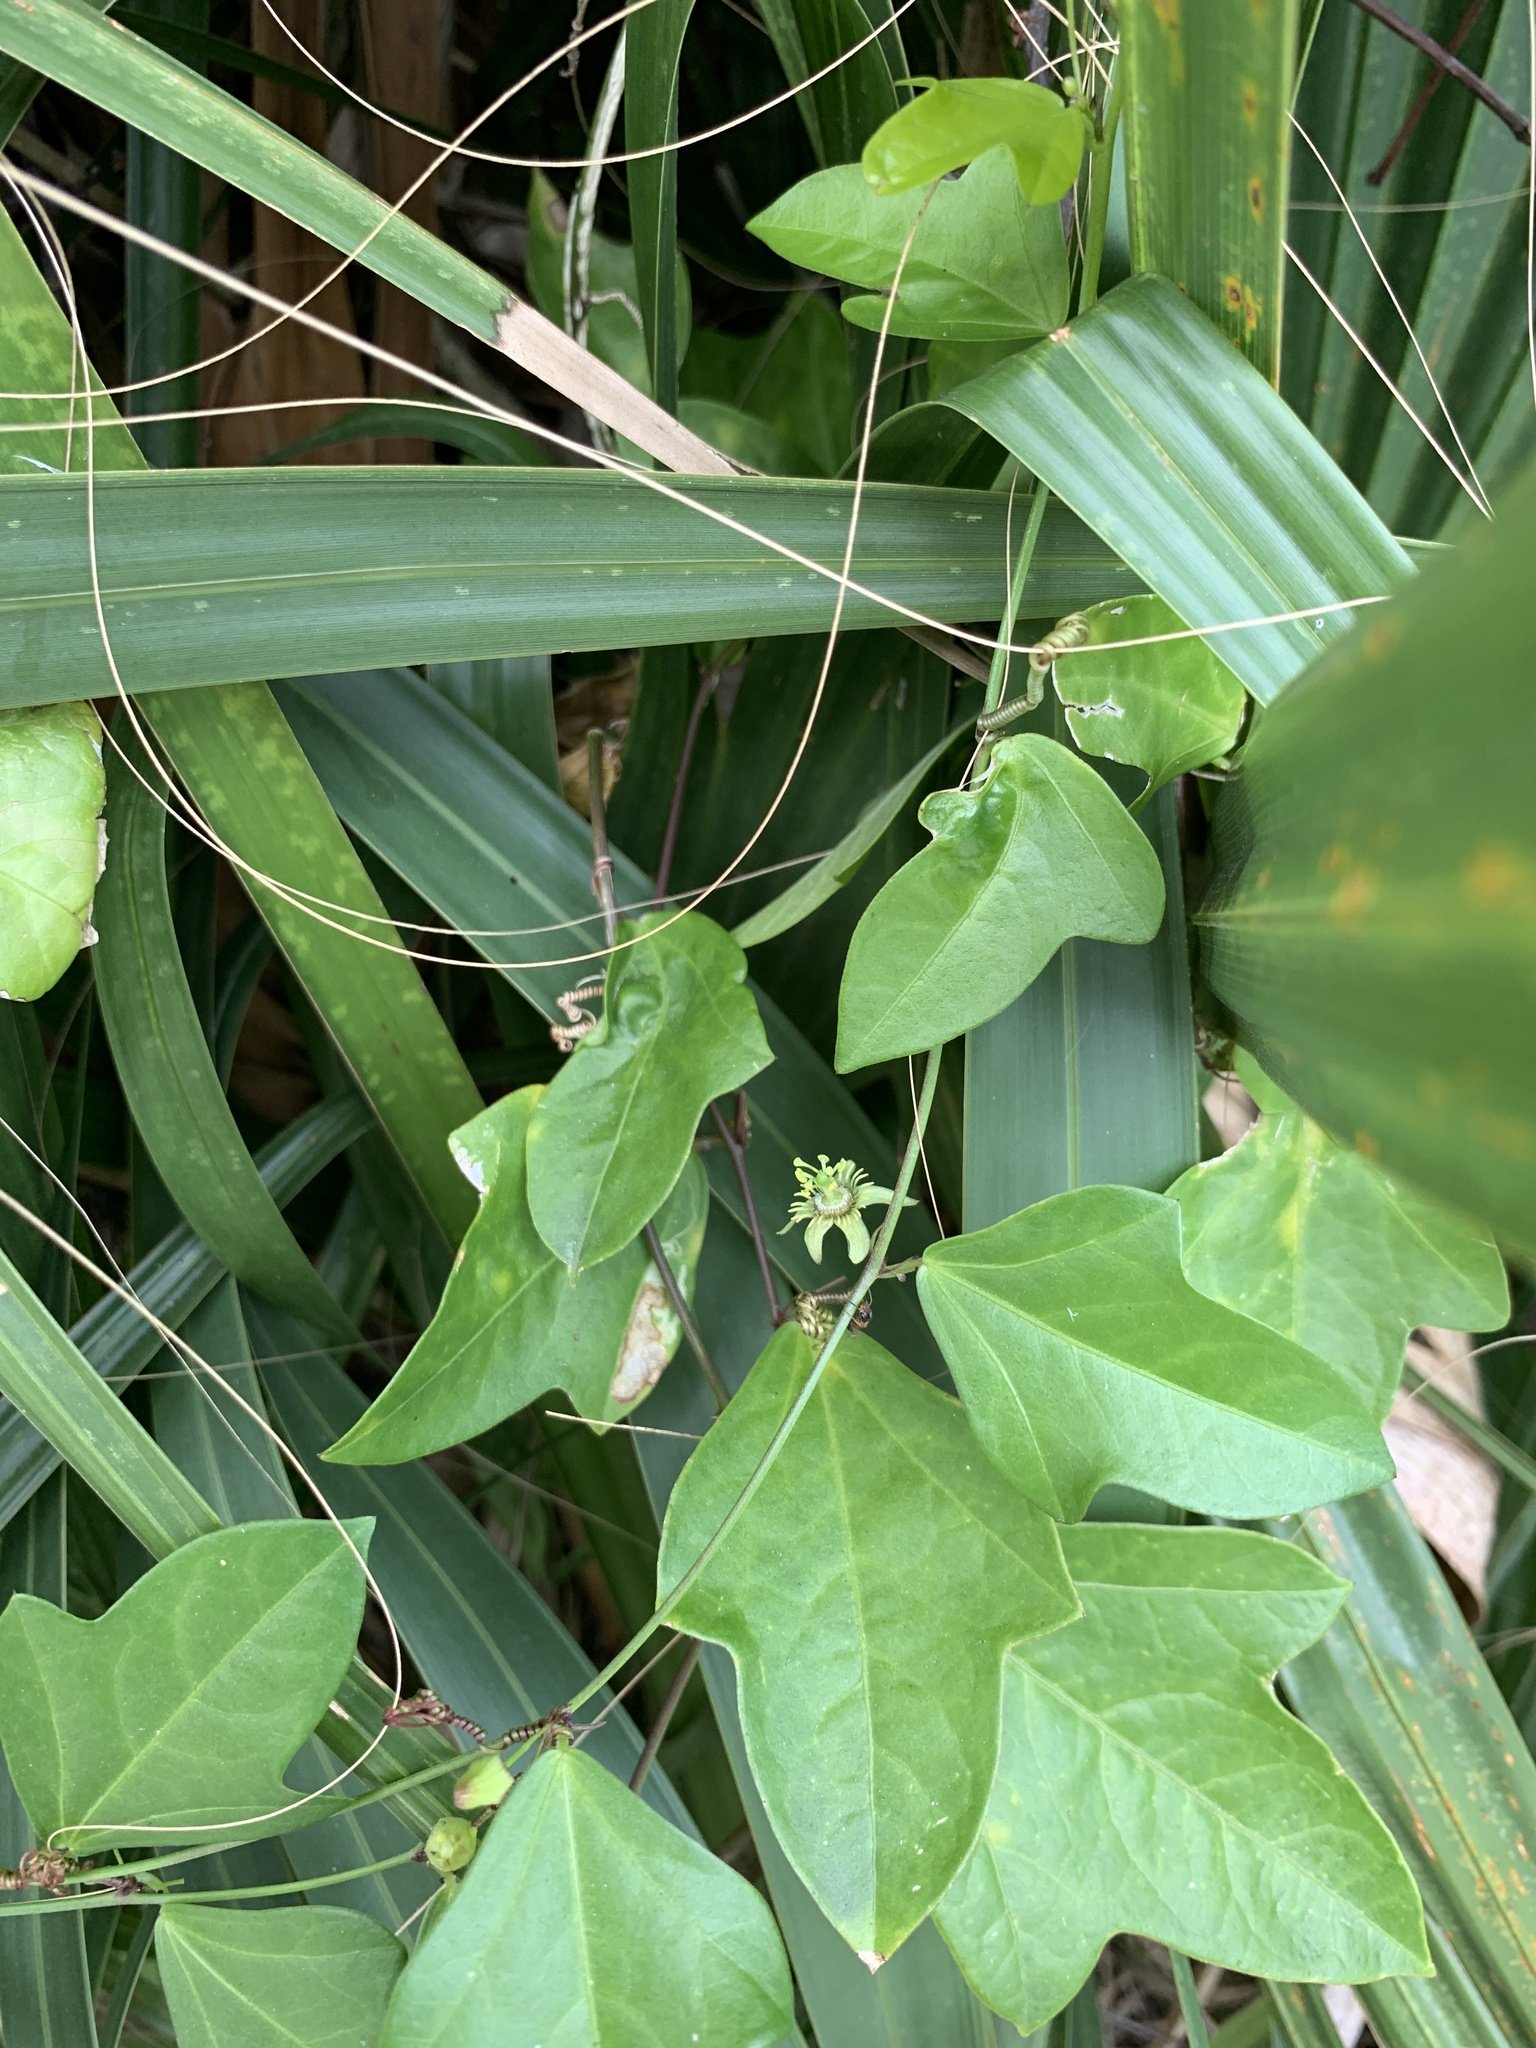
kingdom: Plantae
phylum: Tracheophyta
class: Magnoliopsida
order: Malpighiales
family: Passifloraceae
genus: Passiflora
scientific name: Passiflora pallida
